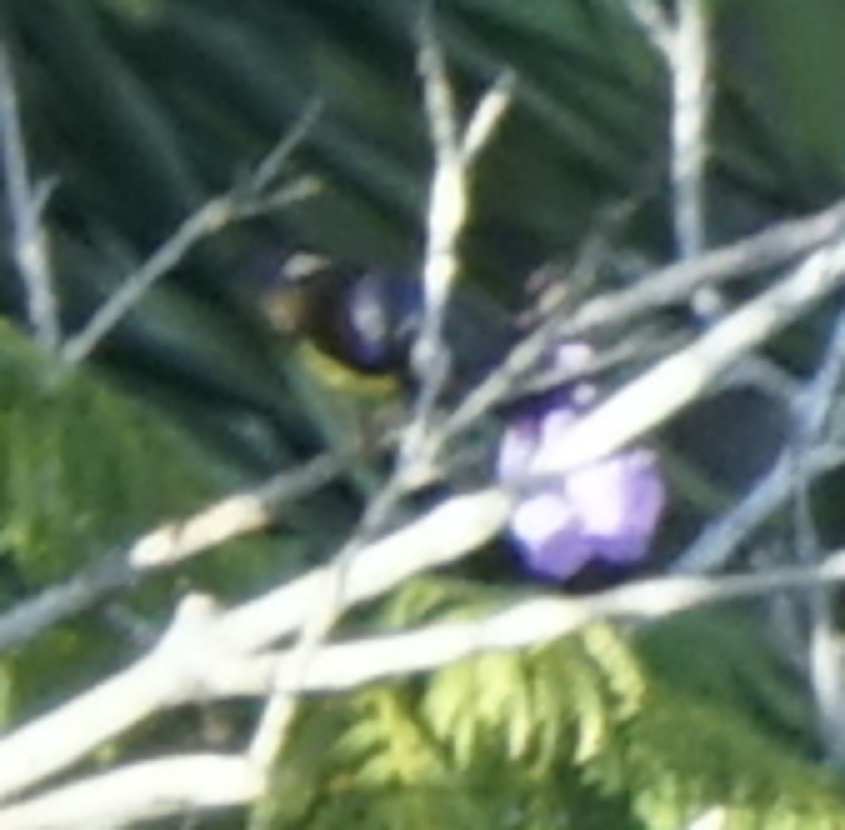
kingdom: Animalia
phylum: Chordata
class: Aves
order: Passeriformes
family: Nectariniidae
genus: Anthreptes
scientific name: Anthreptes malacensis
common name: Brown-throated sunbird
